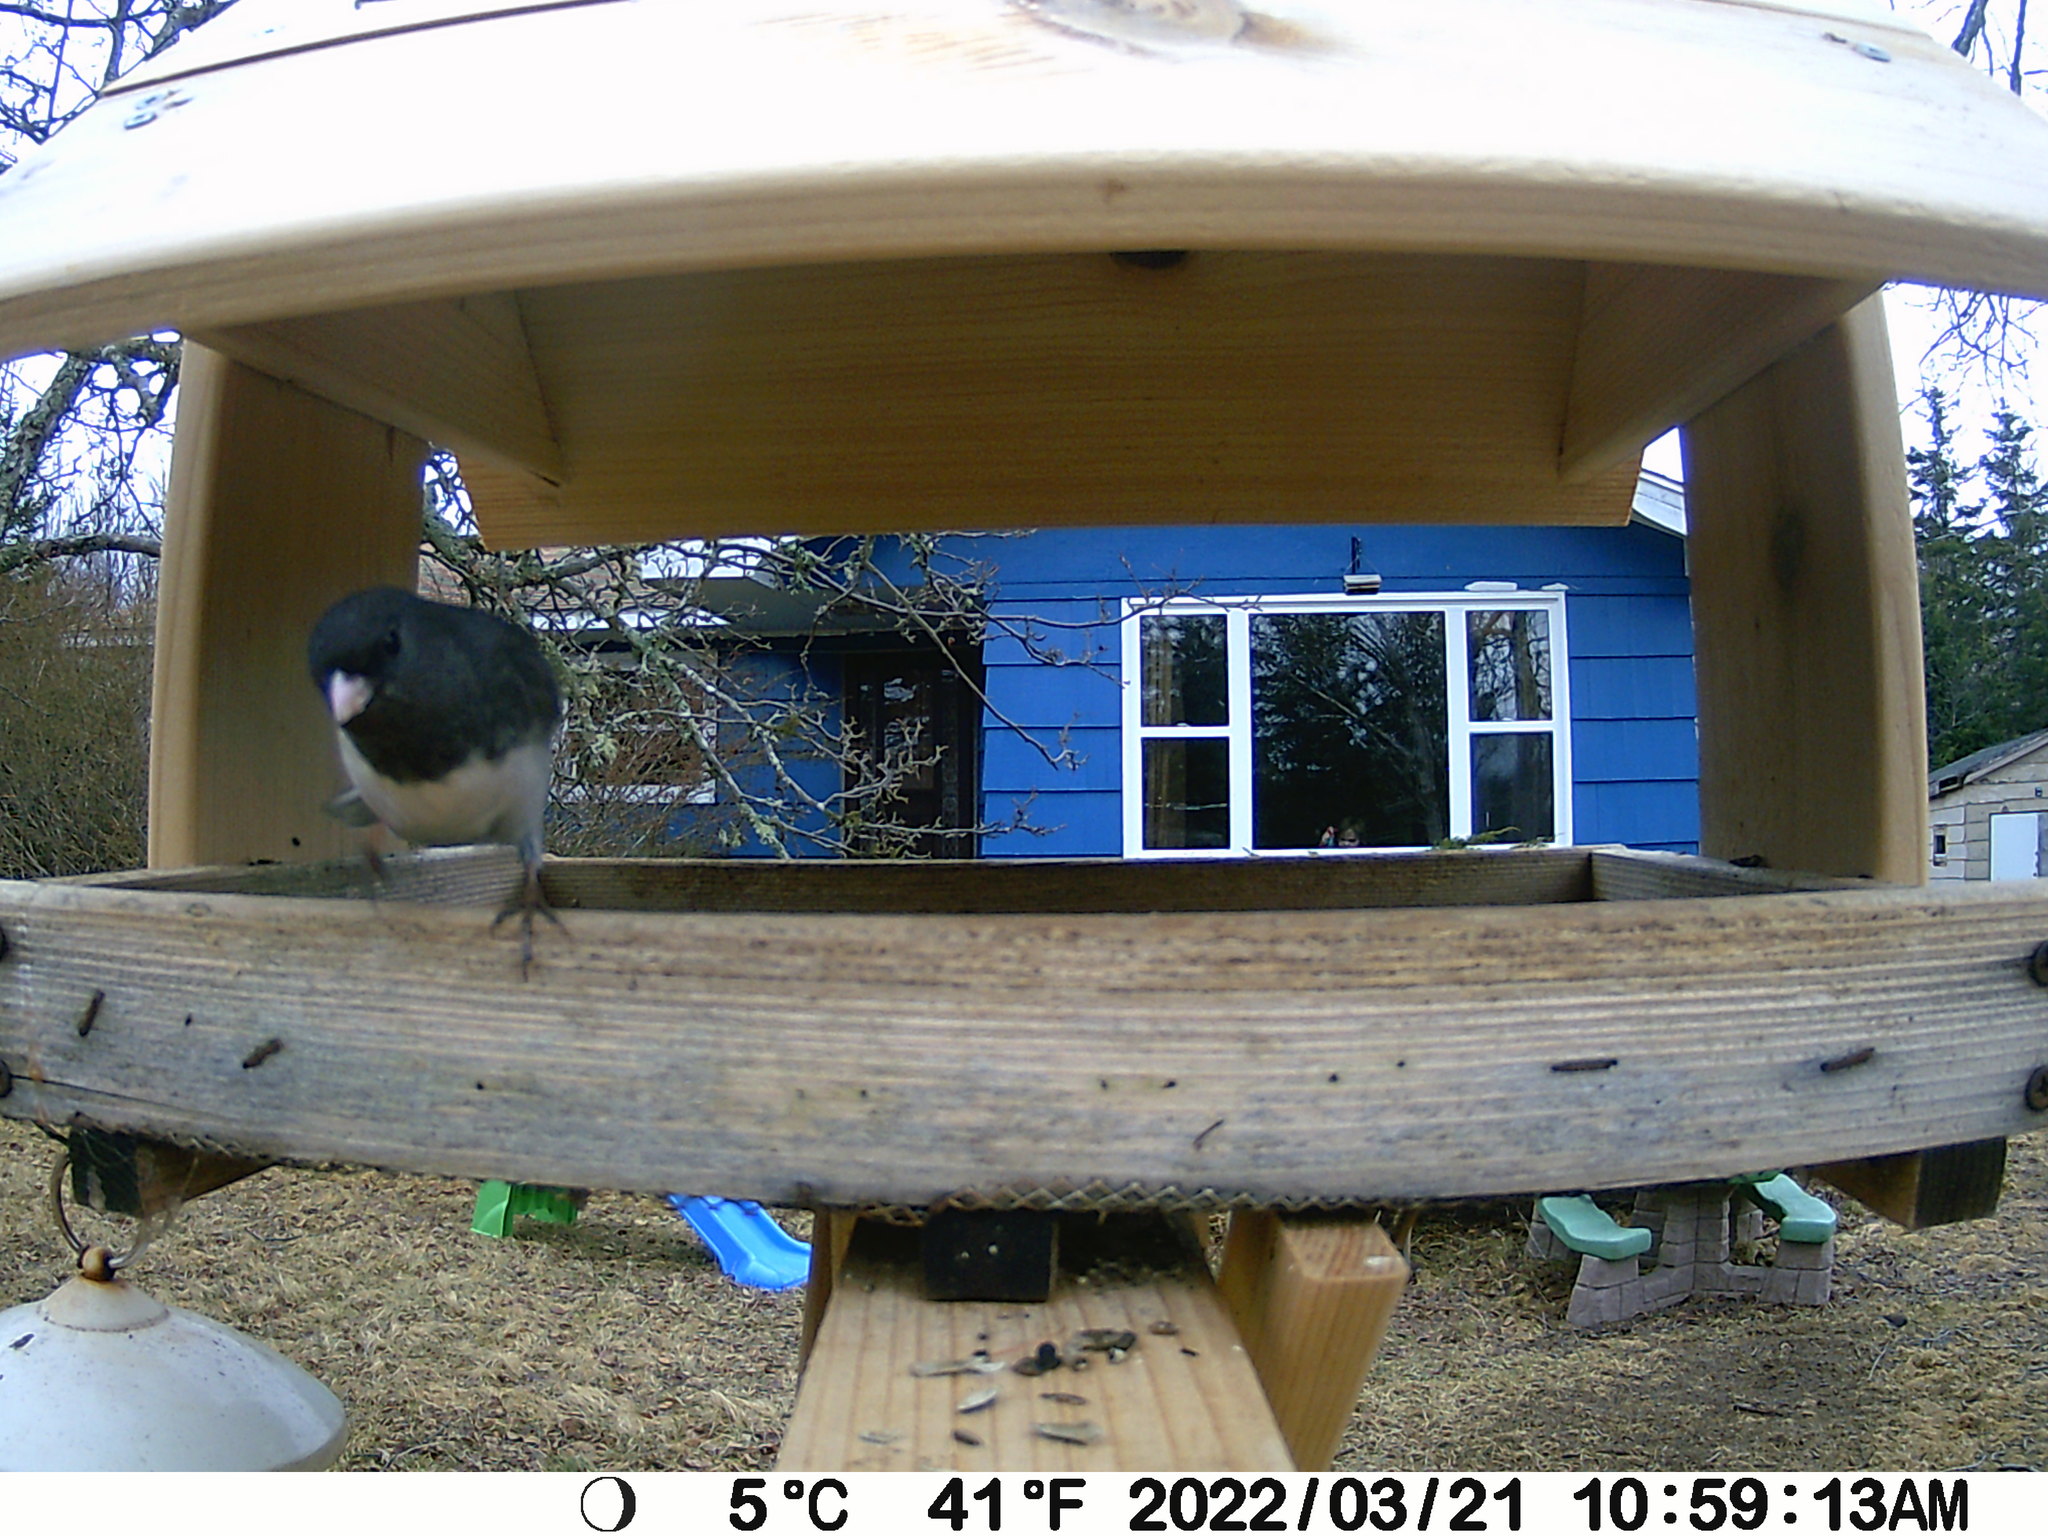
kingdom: Animalia
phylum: Chordata
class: Aves
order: Passeriformes
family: Passerellidae
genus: Junco
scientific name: Junco hyemalis
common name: Dark-eyed junco
